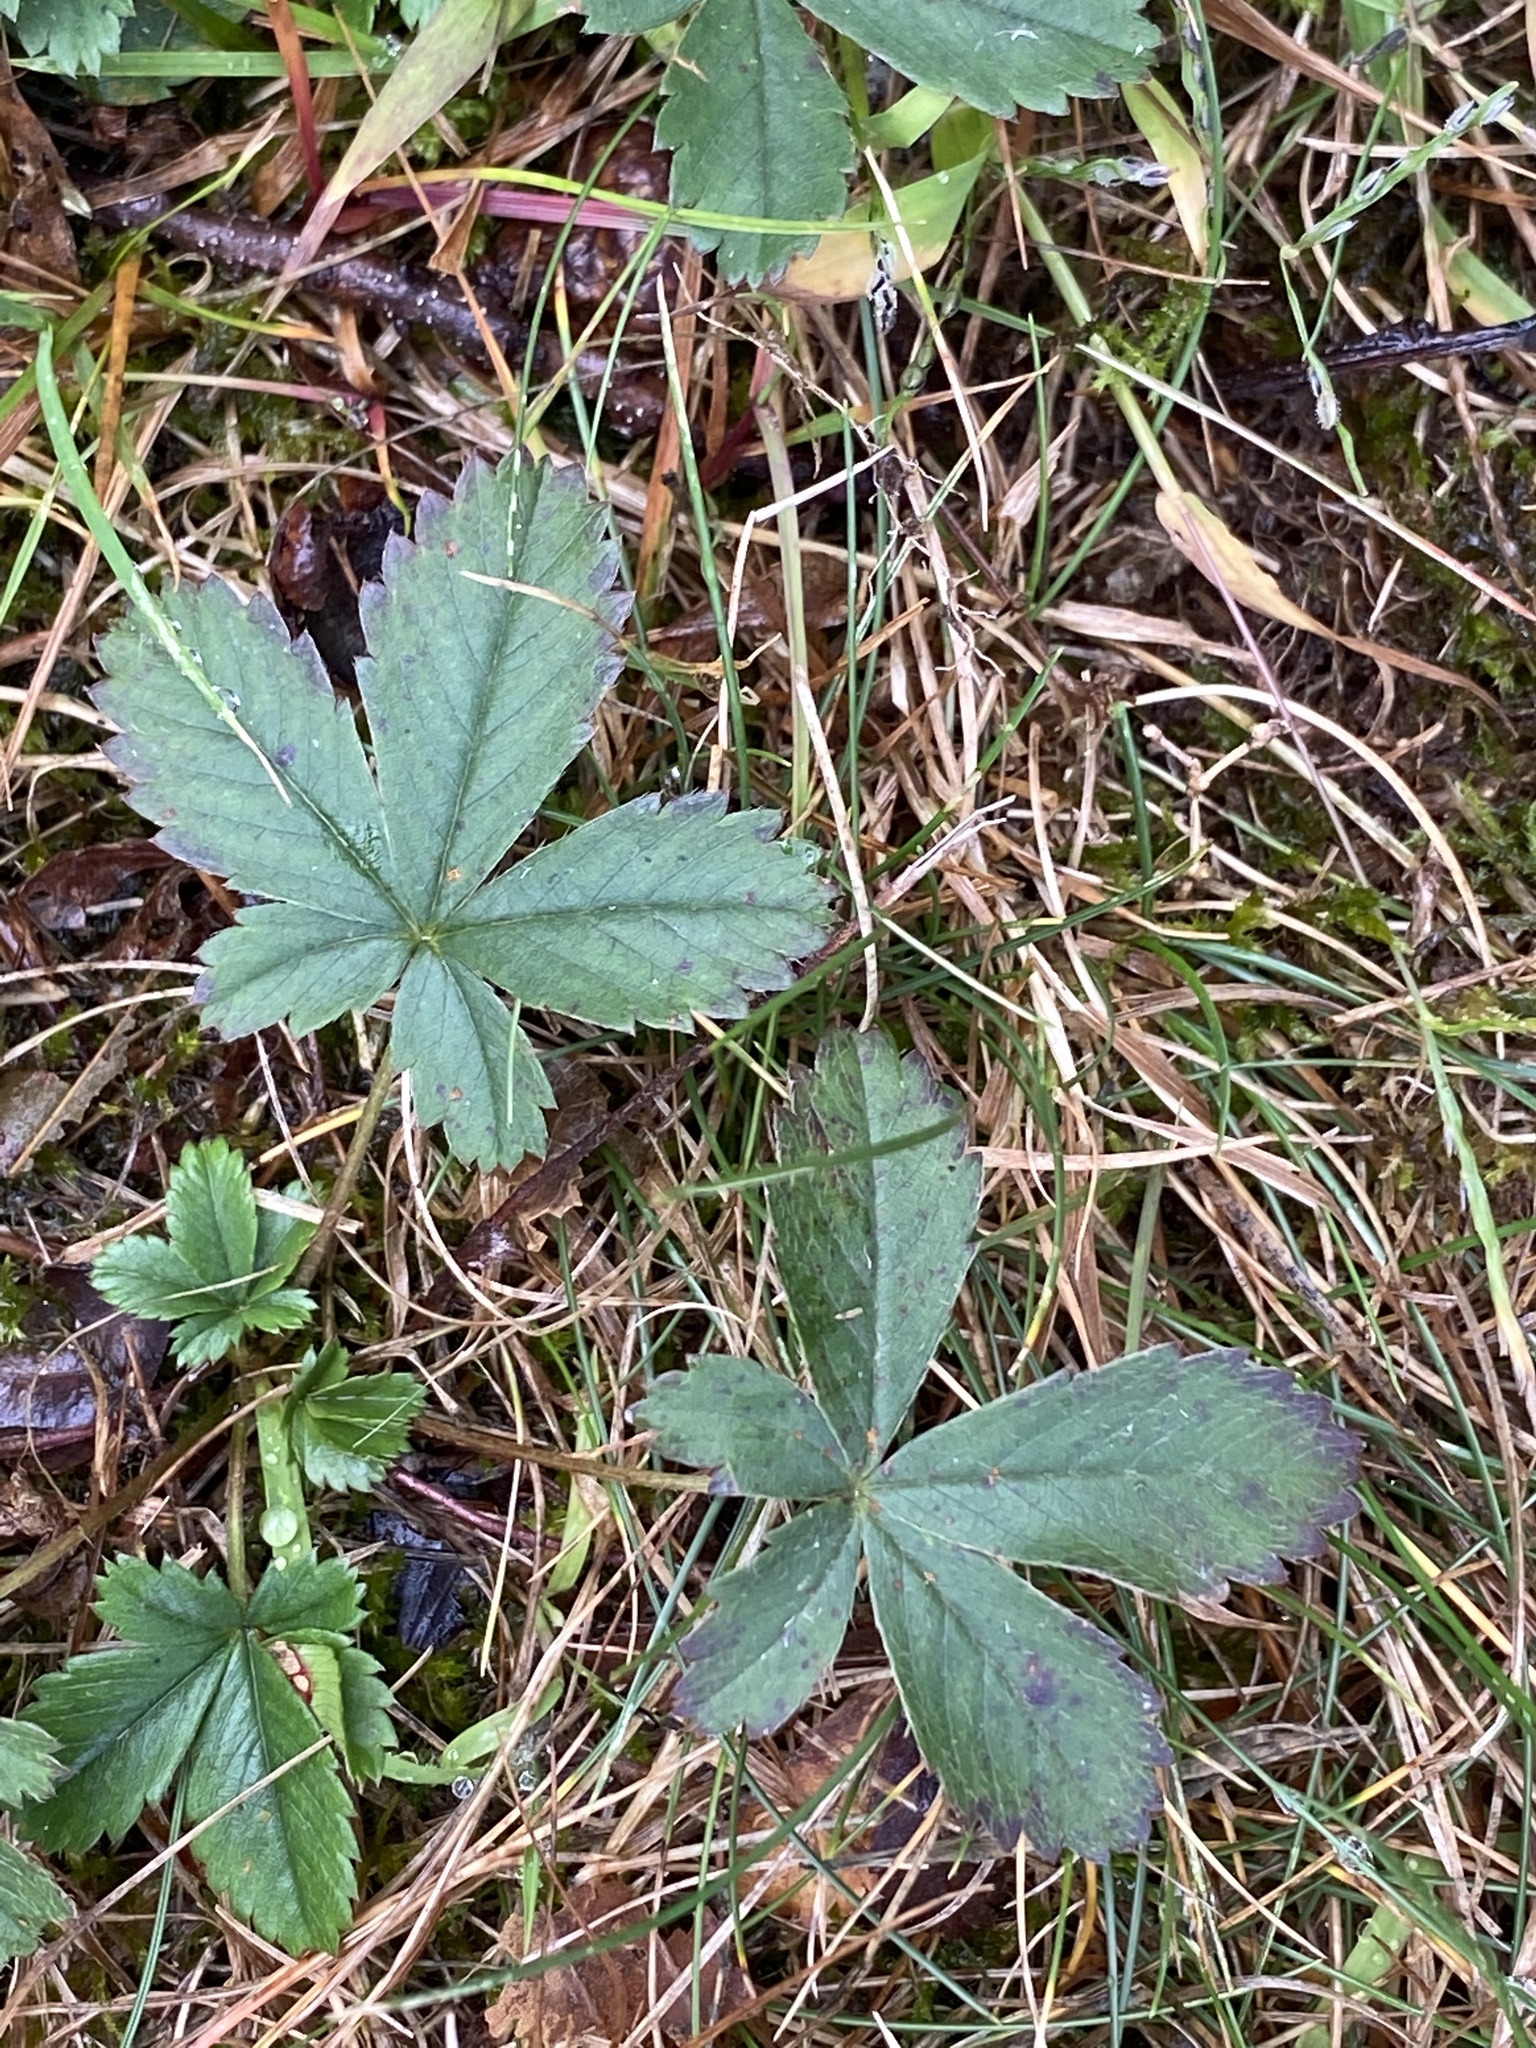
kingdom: Plantae
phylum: Tracheophyta
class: Magnoliopsida
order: Rosales
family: Rosaceae
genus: Potentilla
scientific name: Potentilla canadensis
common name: Canada cinquefoil
